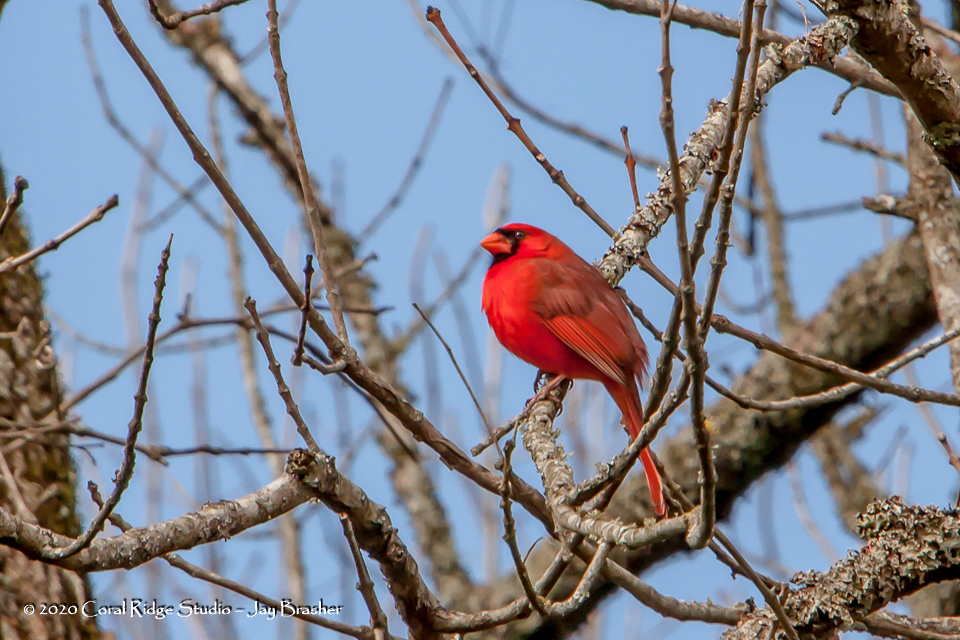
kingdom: Animalia
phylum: Chordata
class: Aves
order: Passeriformes
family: Cardinalidae
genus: Cardinalis
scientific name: Cardinalis cardinalis
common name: Northern cardinal
